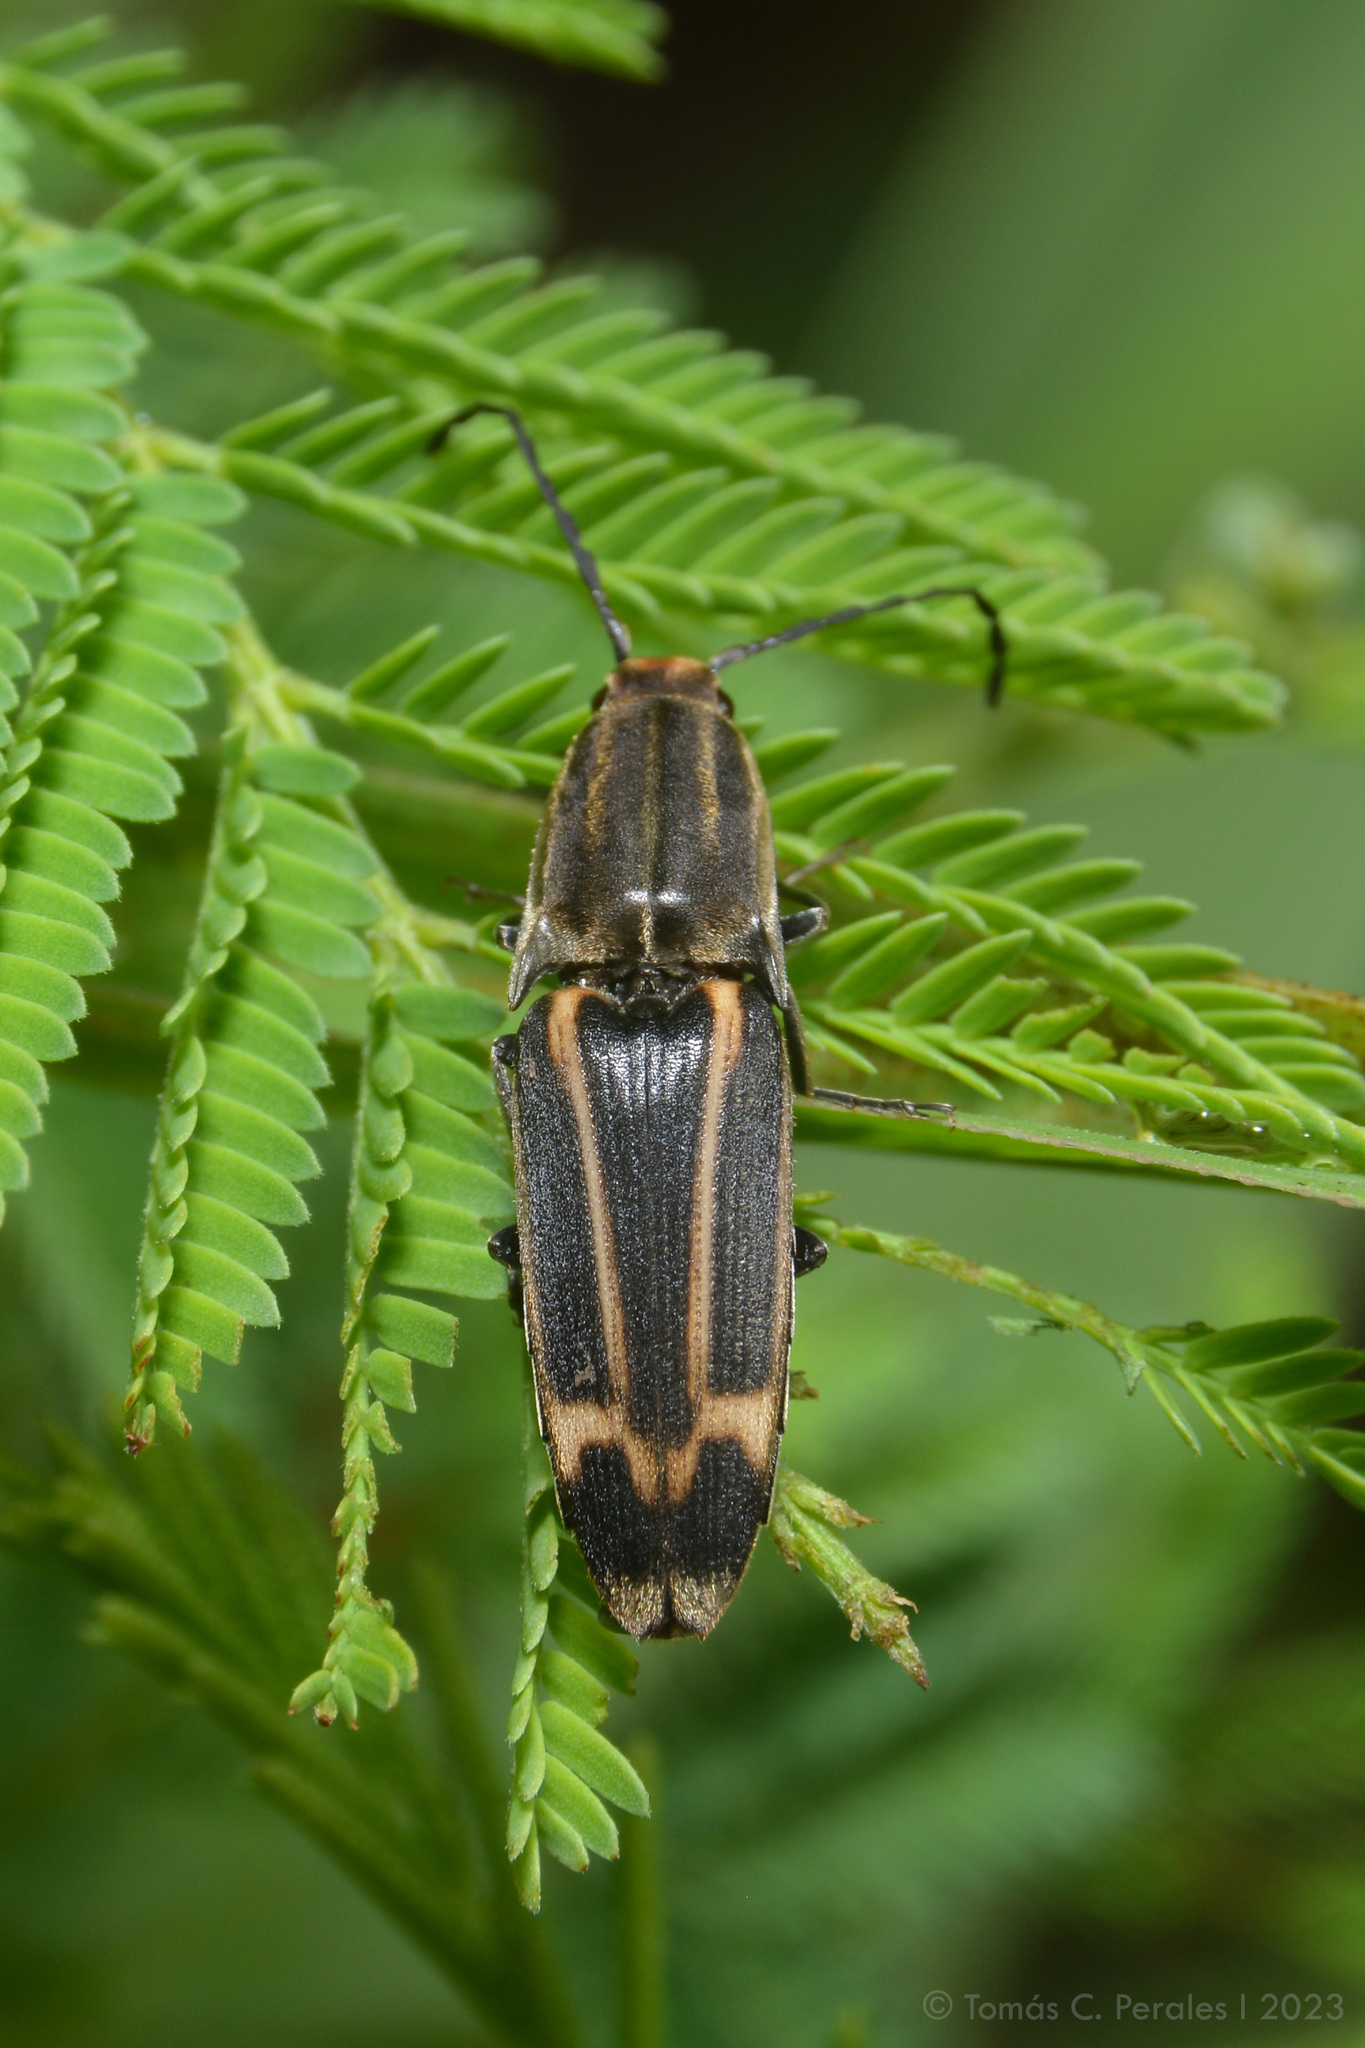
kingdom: Animalia
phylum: Arthropoda
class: Insecta
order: Coleoptera
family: Elateridae
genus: Monocrepidius
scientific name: Monocrepidius
